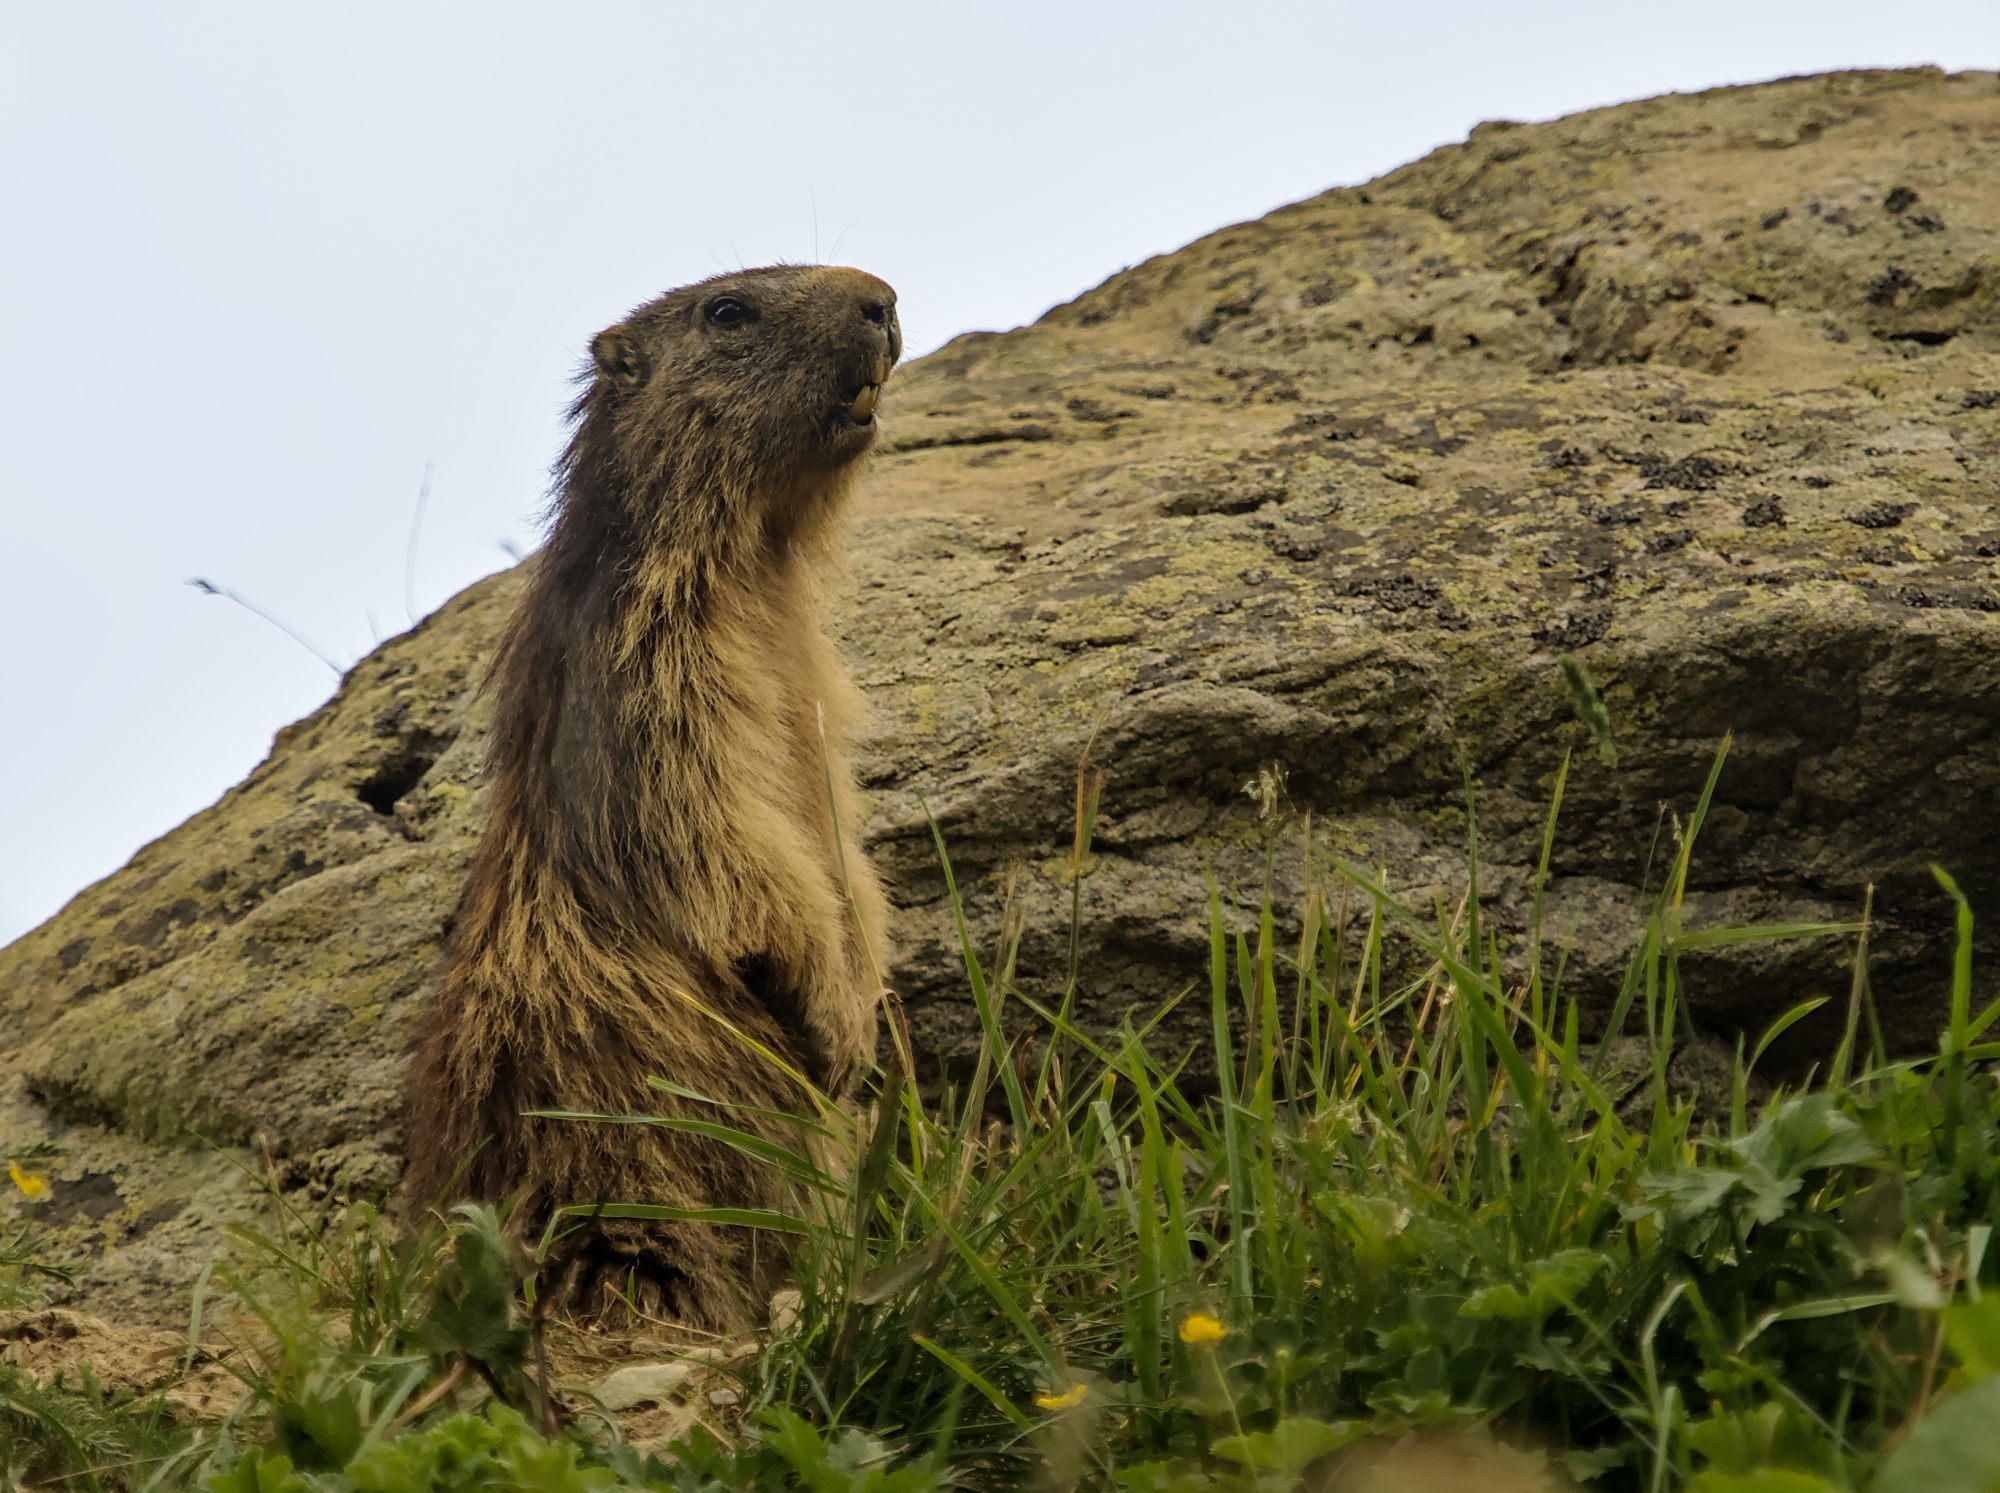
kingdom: Animalia
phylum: Chordata
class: Mammalia
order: Rodentia
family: Sciuridae
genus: Marmota
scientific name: Marmota marmota
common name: Alpine marmot
